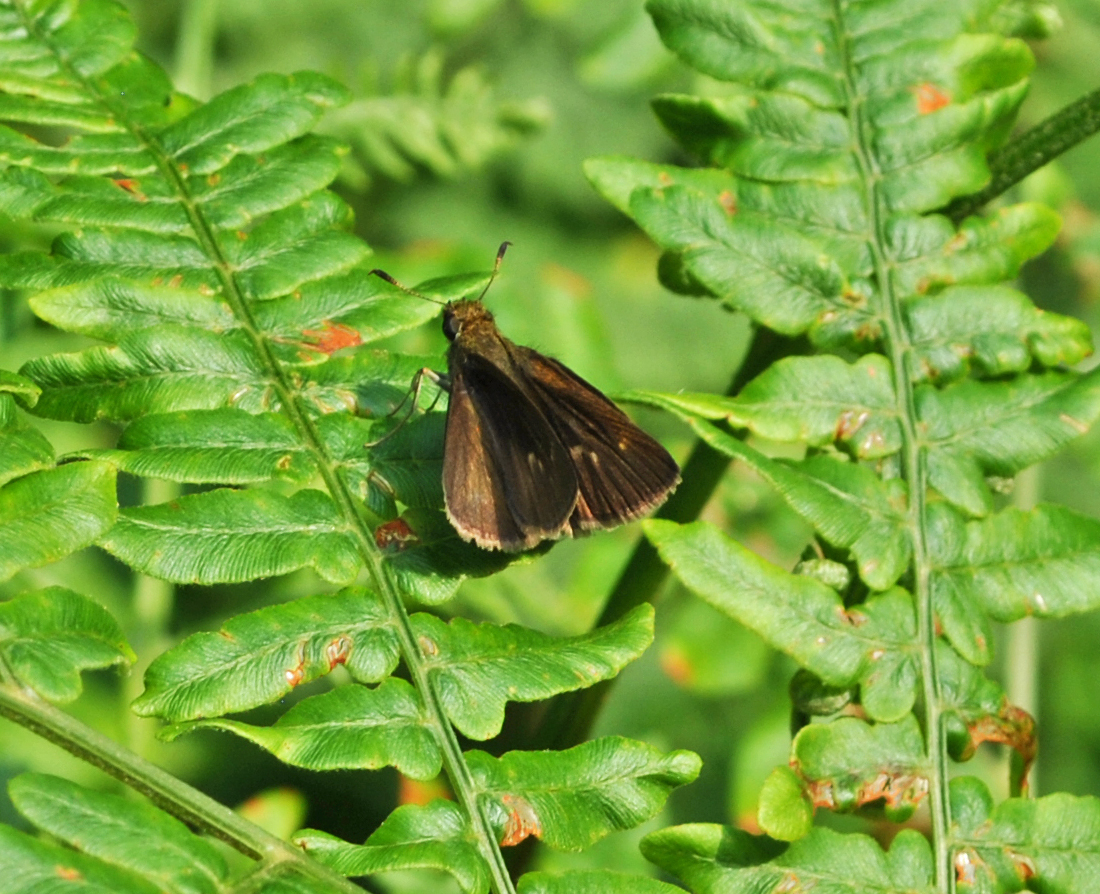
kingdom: Animalia
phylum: Arthropoda
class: Insecta
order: Lepidoptera
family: Hesperiidae
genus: Euphyes
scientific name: Euphyes vestris
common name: Dun skipper
